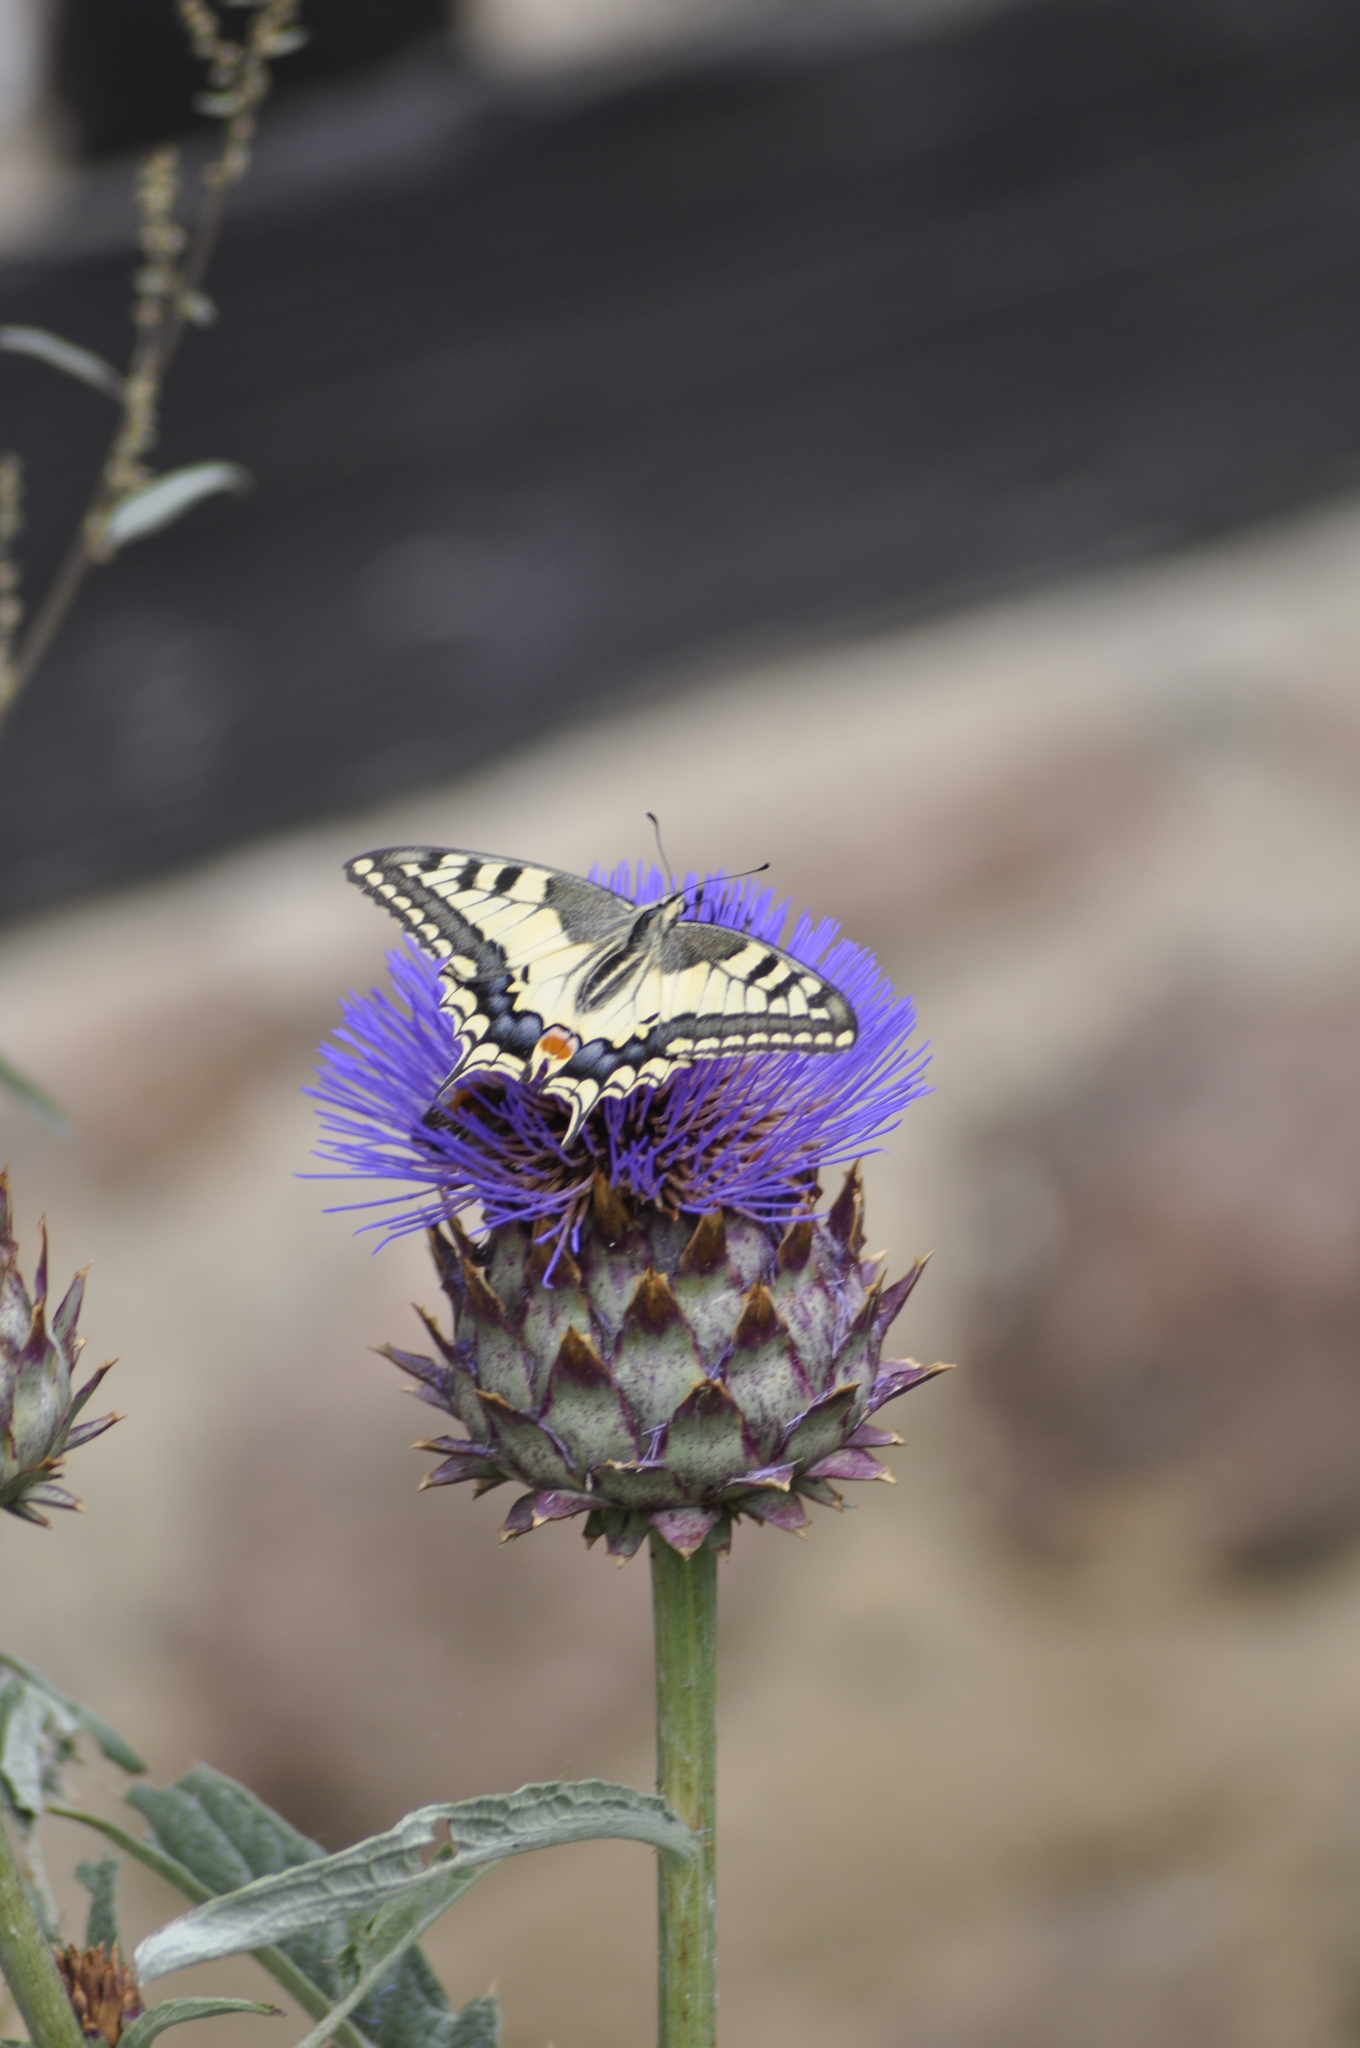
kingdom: Animalia
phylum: Arthropoda
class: Insecta
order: Lepidoptera
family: Papilionidae
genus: Papilio
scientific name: Papilio machaon
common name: Swallowtail
